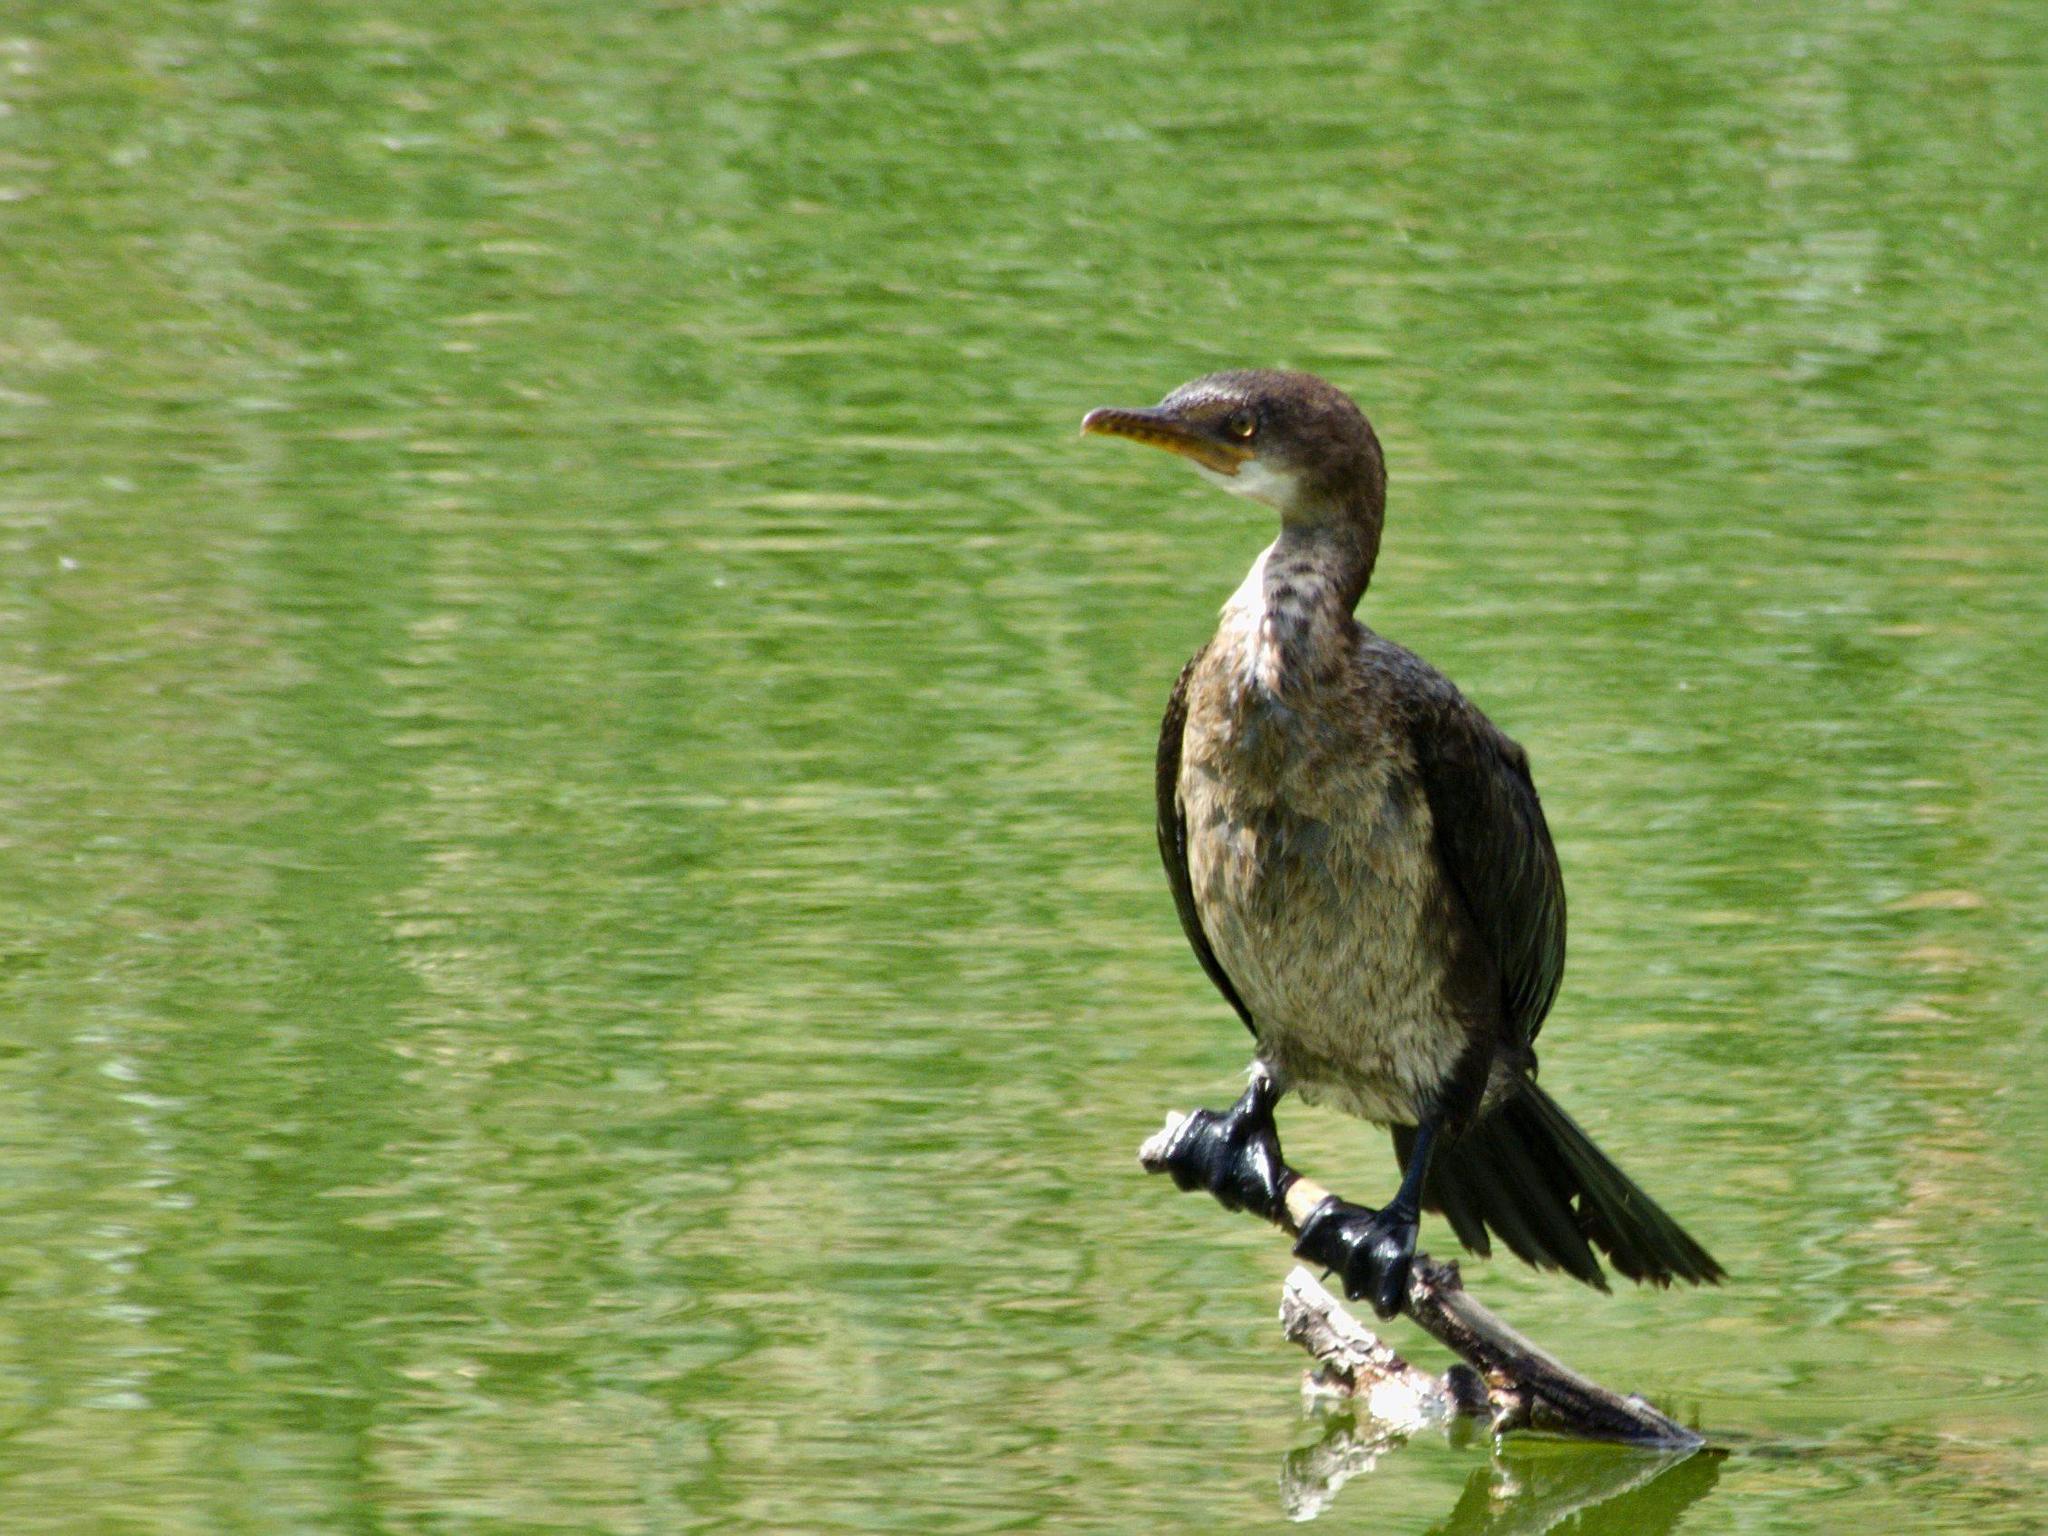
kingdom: Animalia
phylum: Chordata
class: Aves
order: Suliformes
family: Phalacrocoracidae
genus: Microcarbo
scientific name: Microcarbo africanus
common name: Long-tailed cormorant
